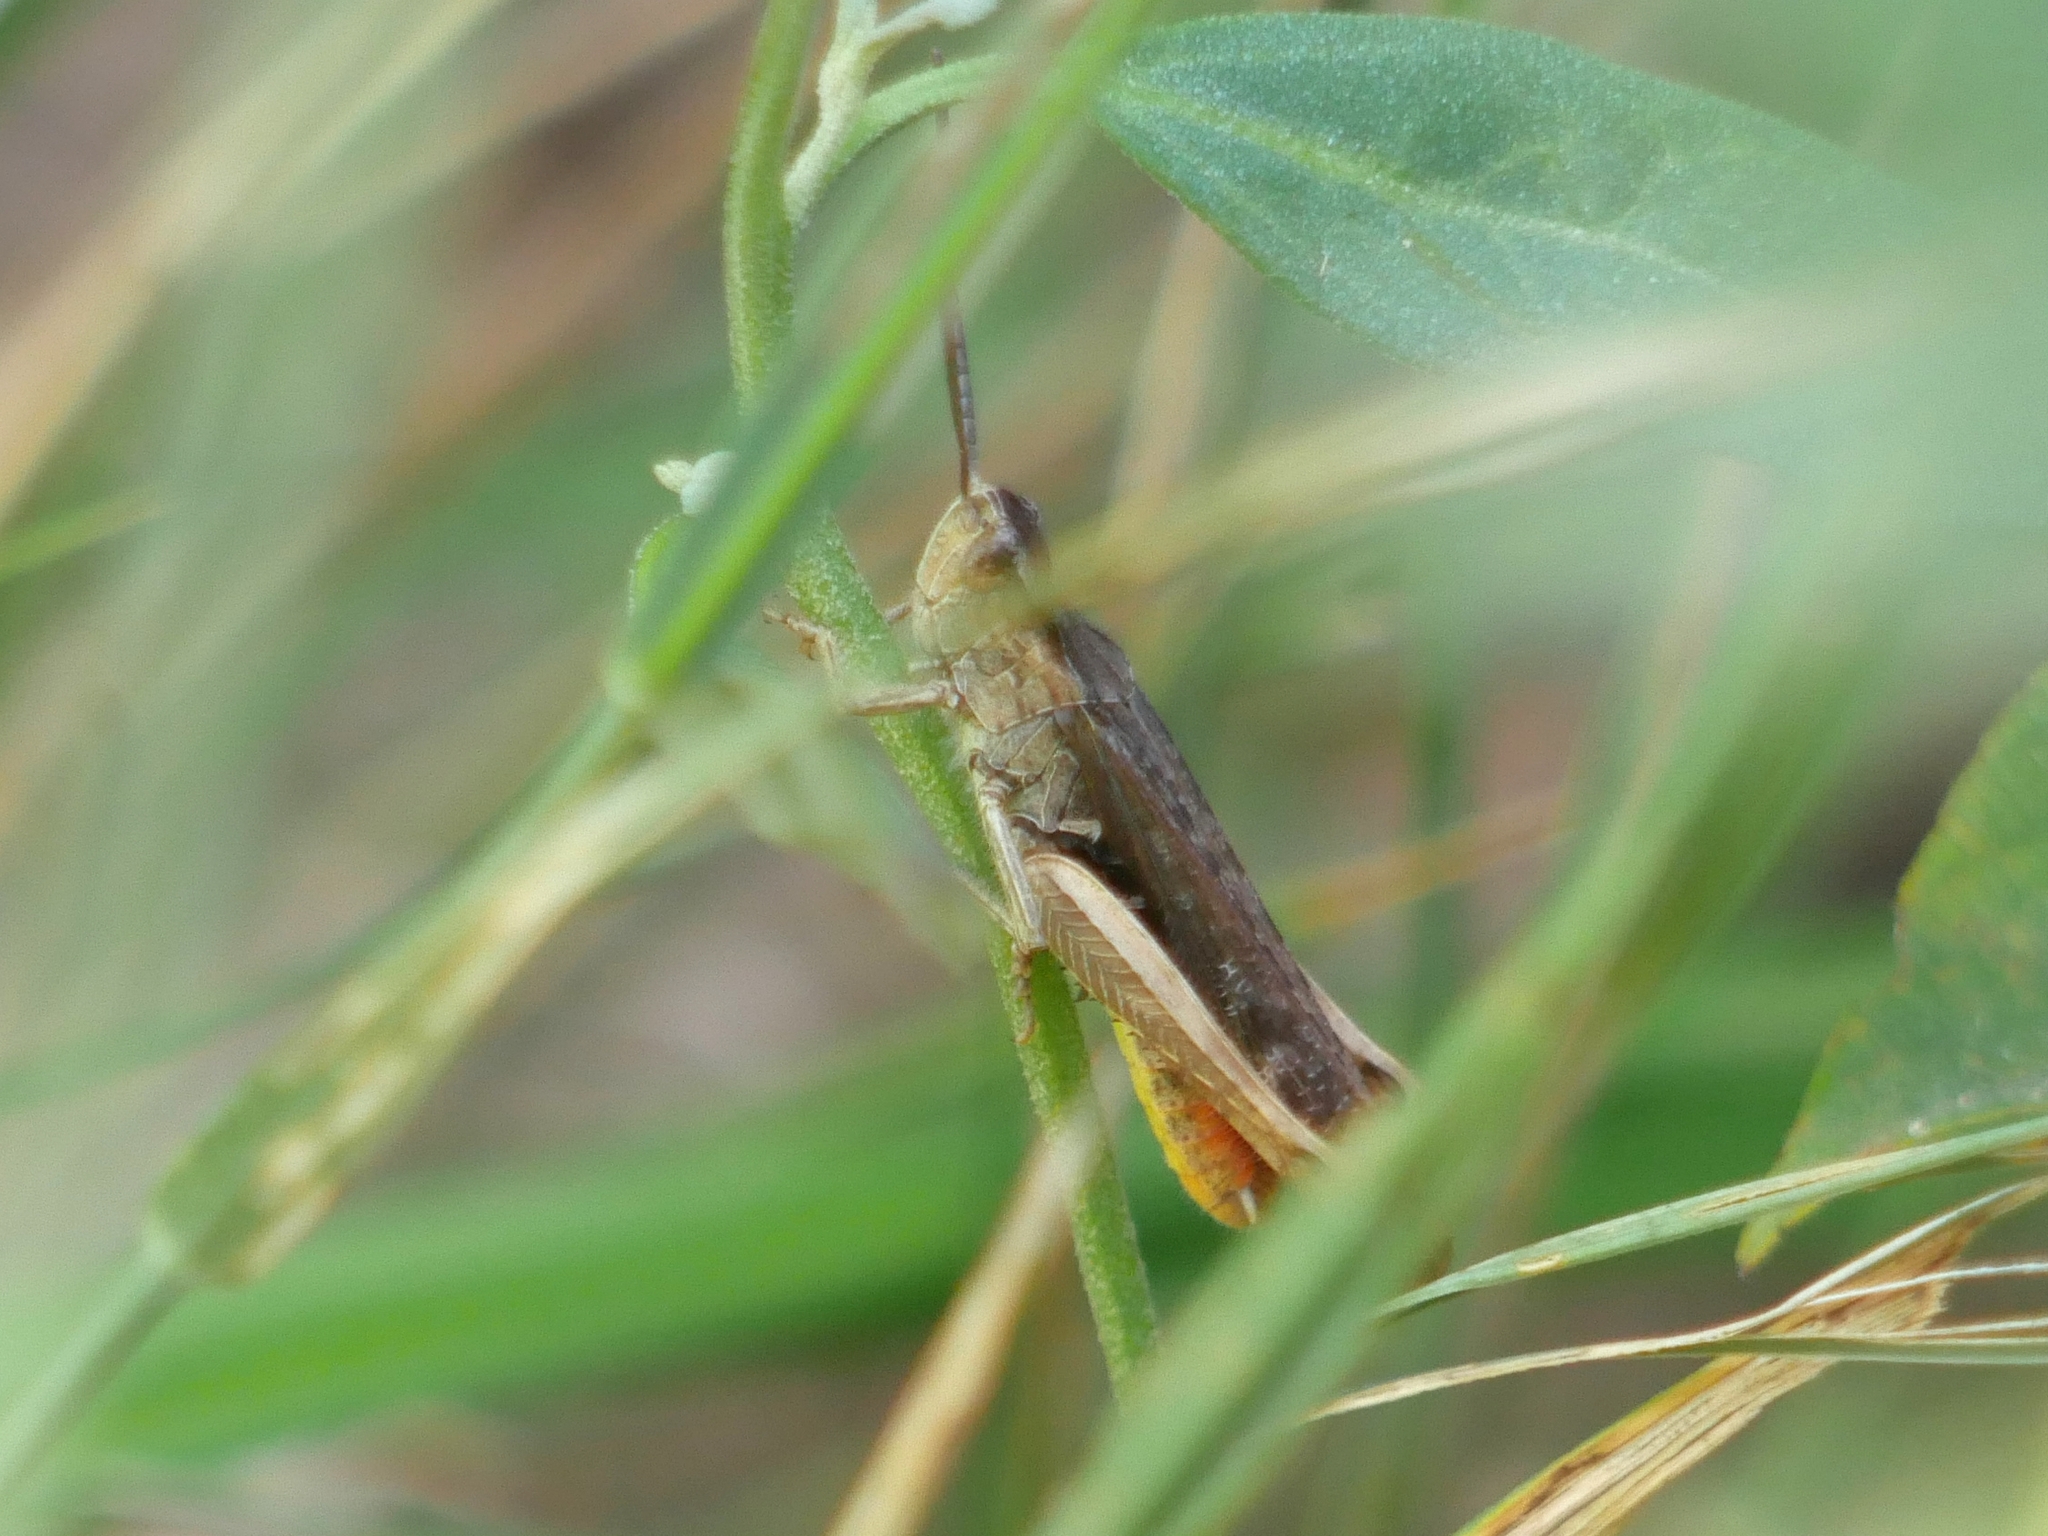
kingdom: Animalia
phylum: Arthropoda
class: Insecta
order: Orthoptera
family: Acrididae
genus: Chorthippus
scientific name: Chorthippus brunneus
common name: Field grasshopper
